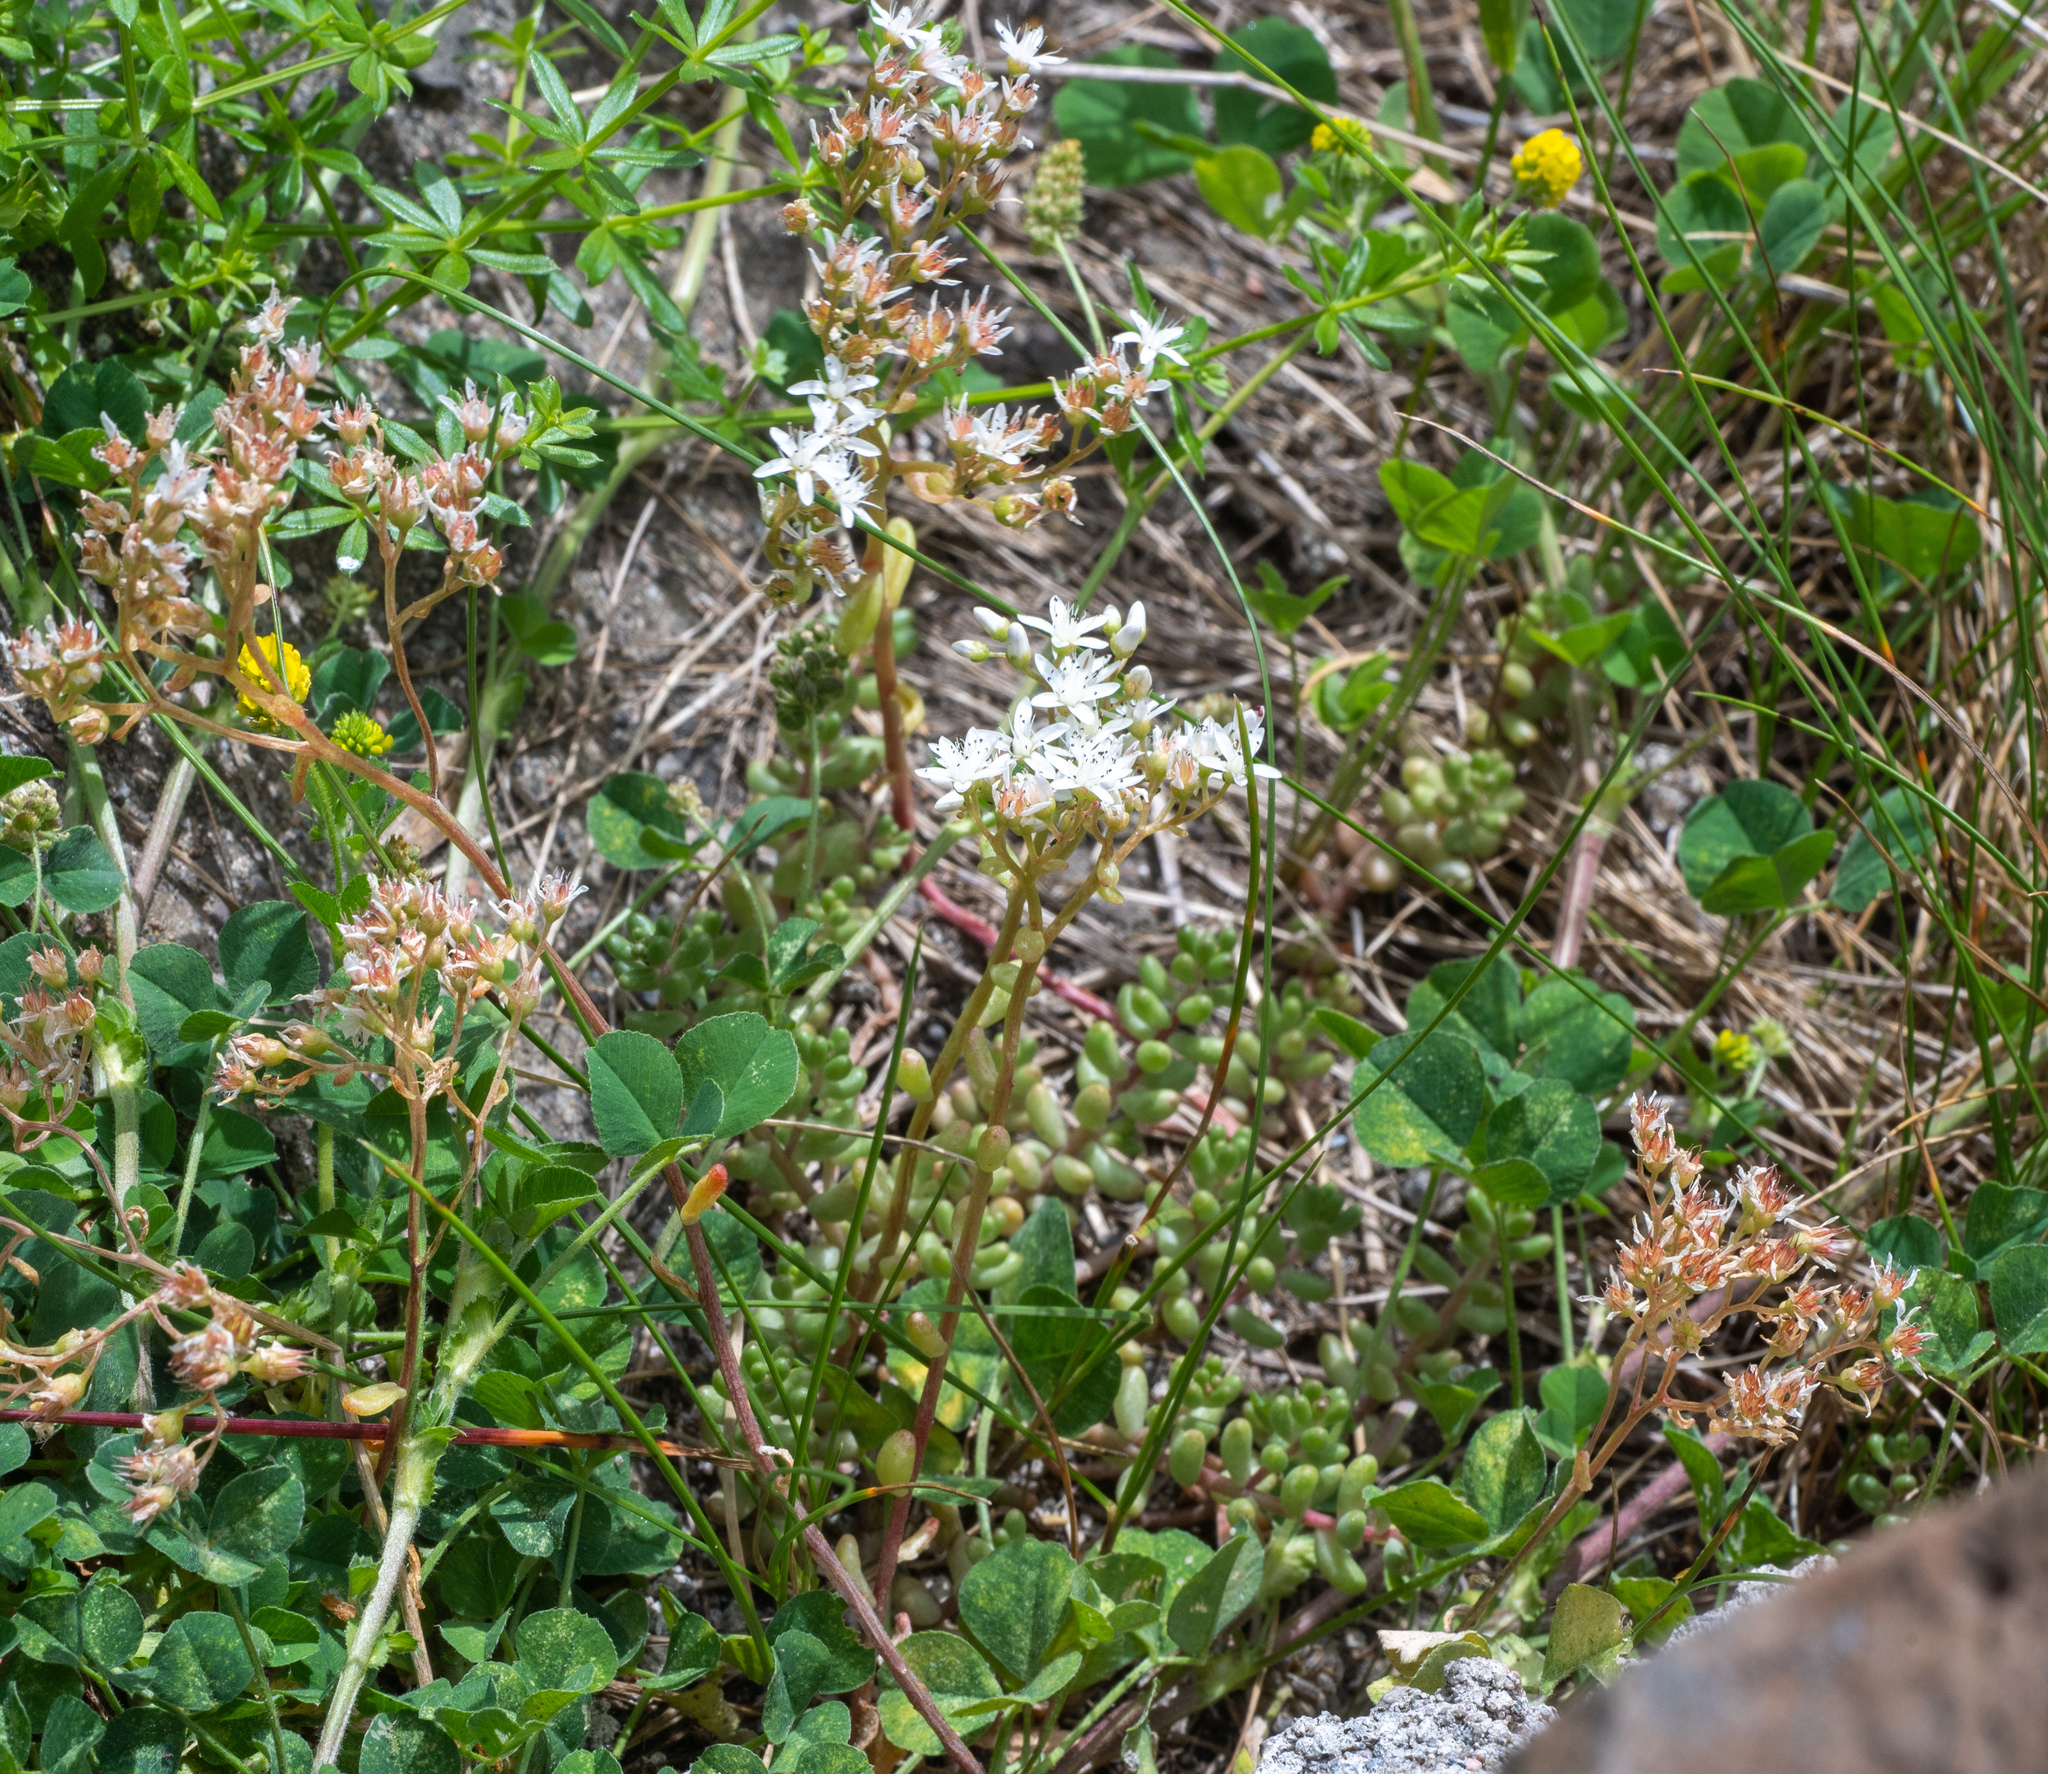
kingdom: Plantae
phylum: Tracheophyta
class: Magnoliopsida
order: Saxifragales
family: Crassulaceae
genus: Sedum
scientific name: Sedum album
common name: White stonecrop
